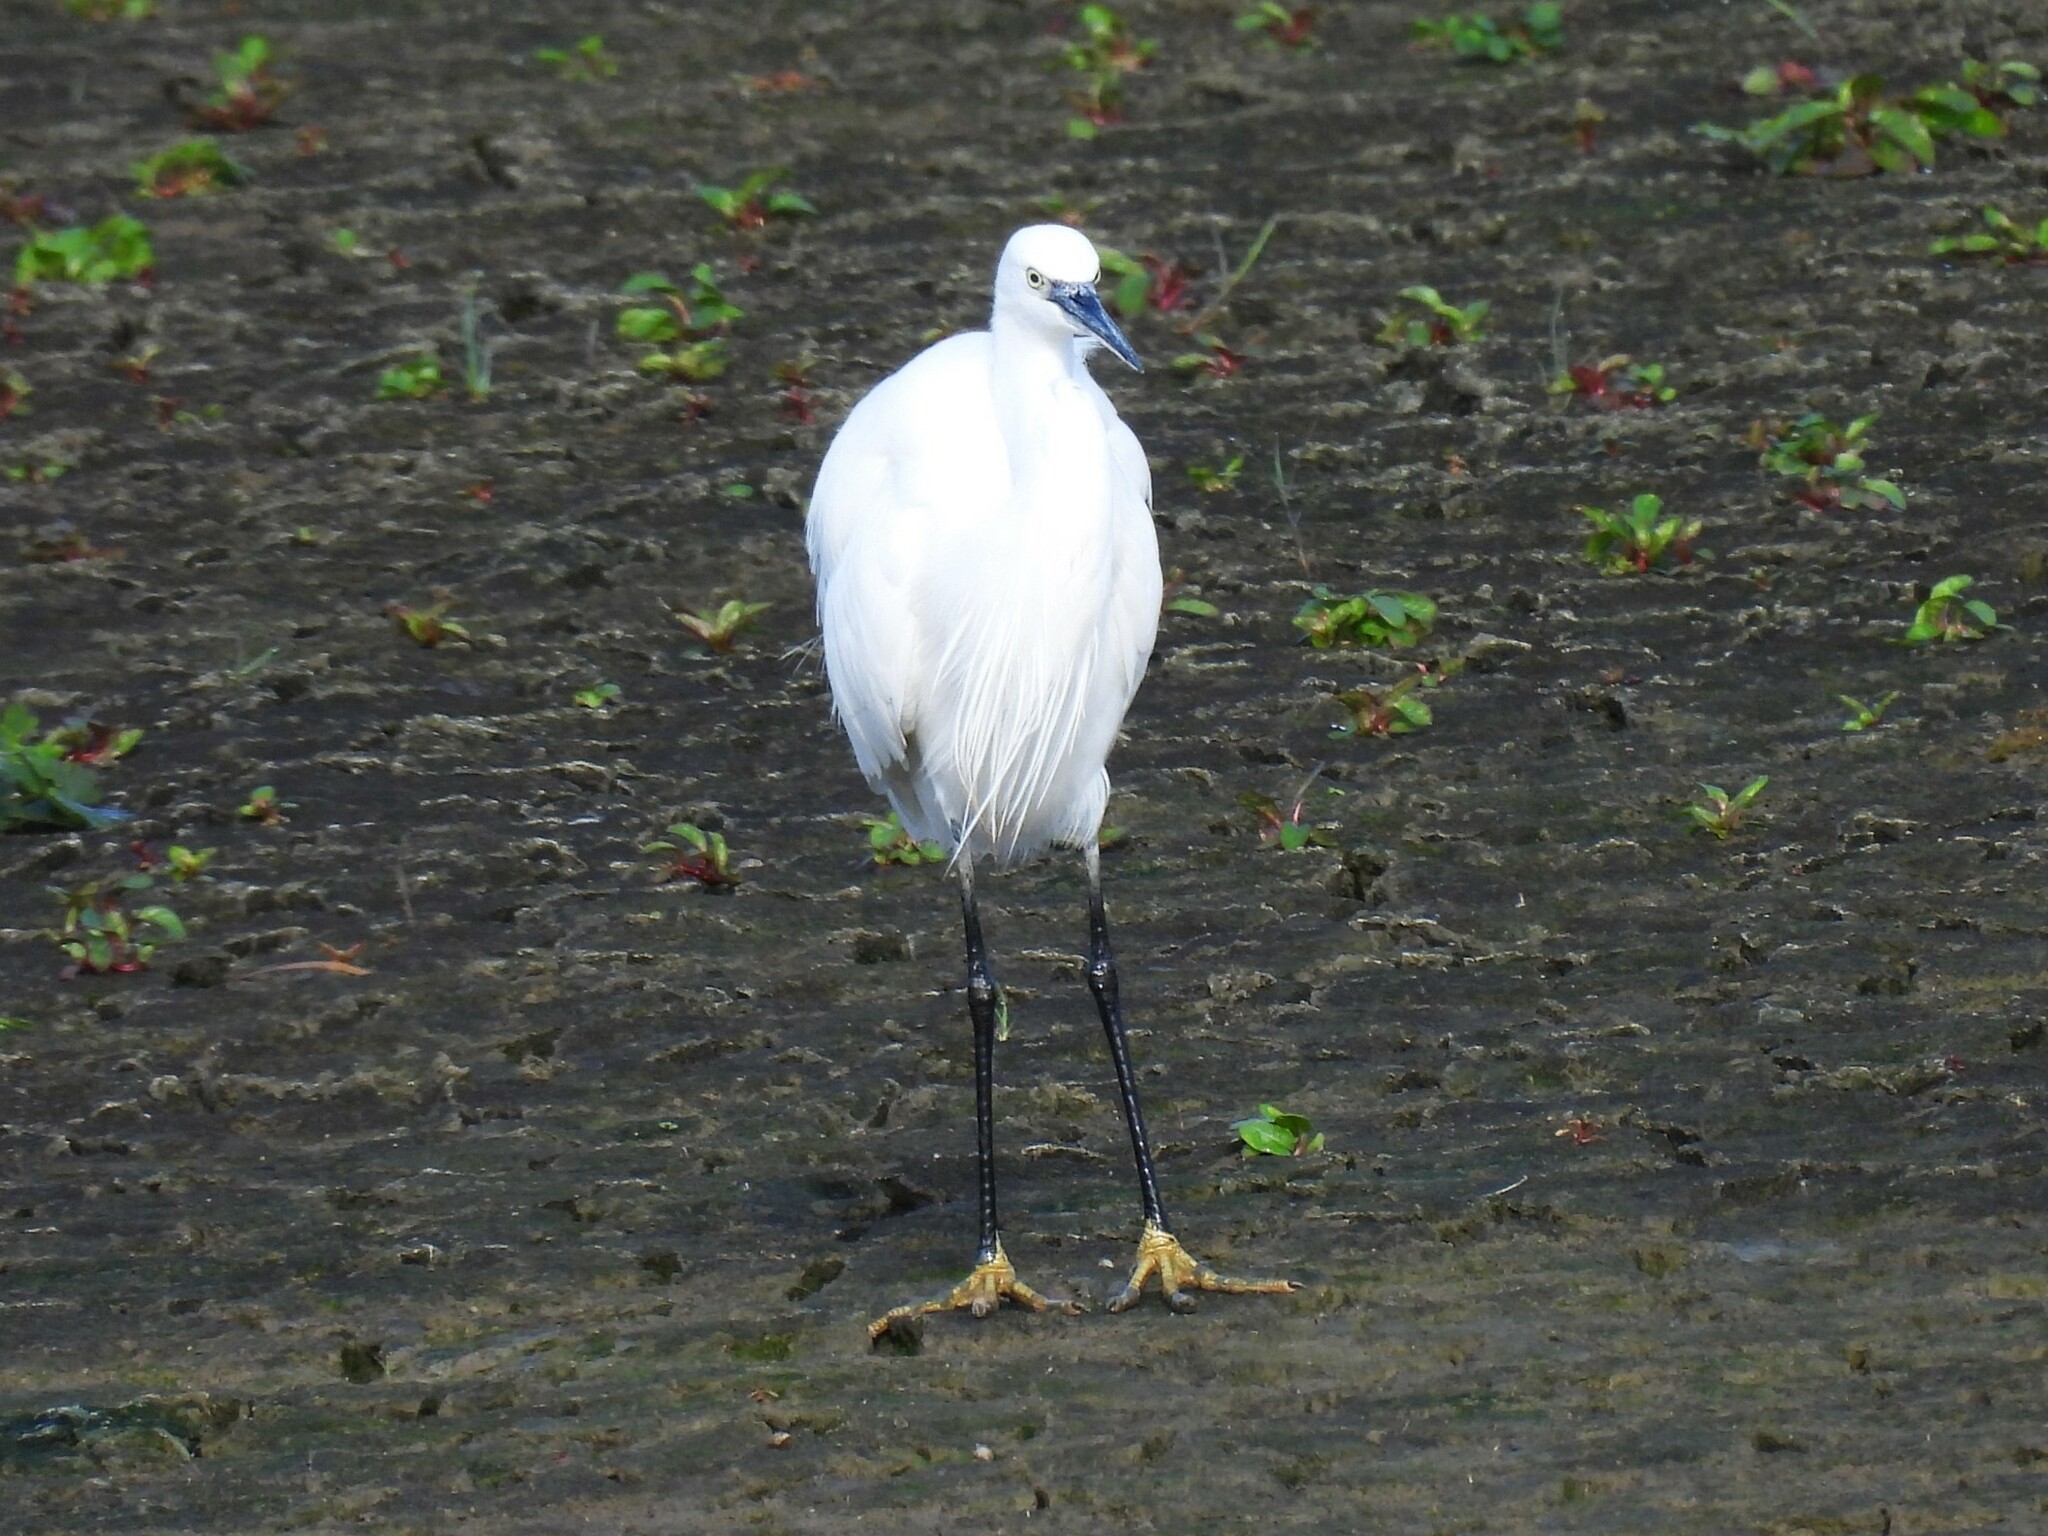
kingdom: Animalia
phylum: Chordata
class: Aves
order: Pelecaniformes
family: Ardeidae
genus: Egretta
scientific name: Egretta garzetta
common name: Little egret
